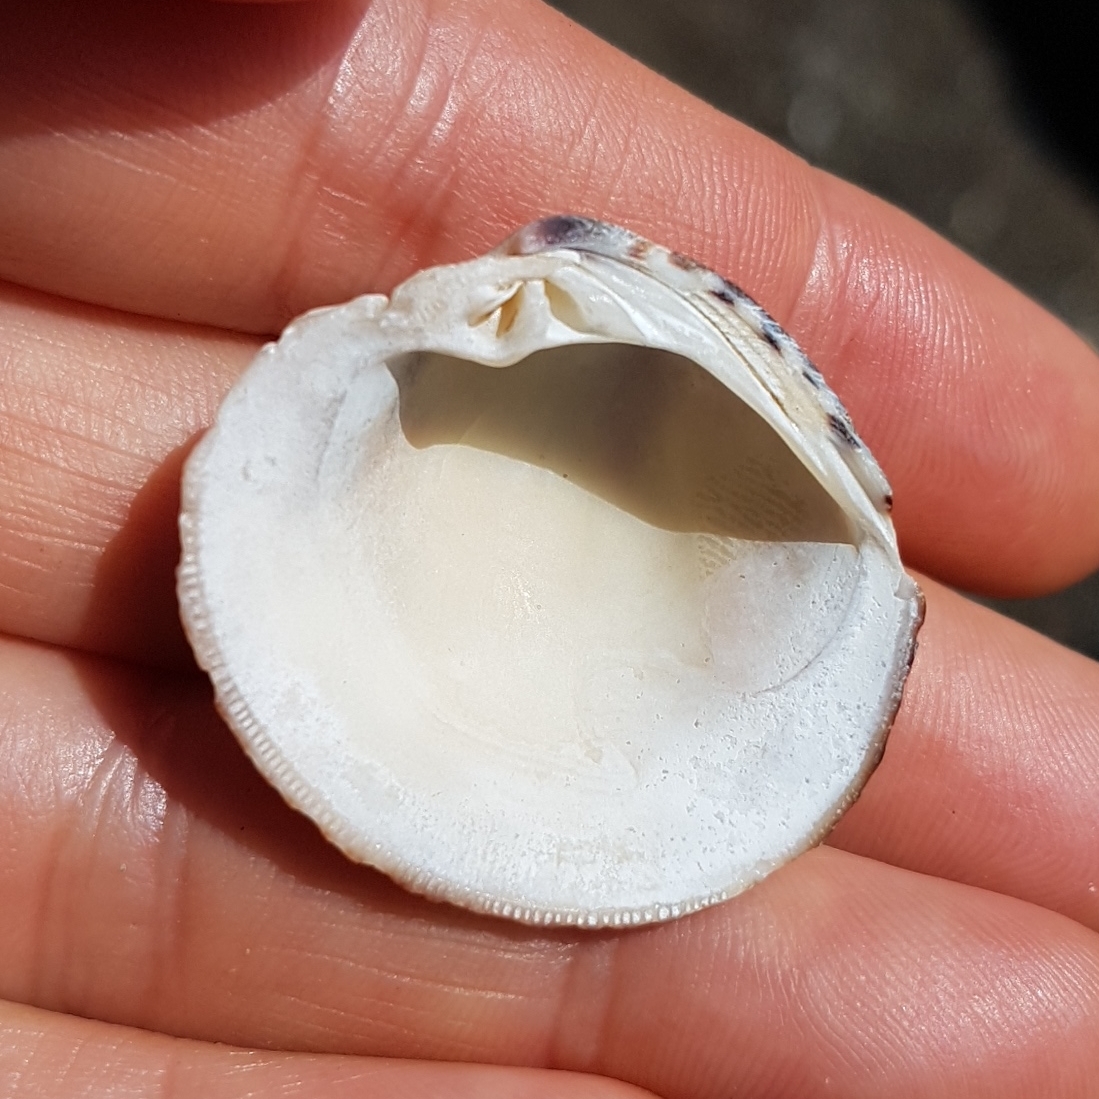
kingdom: Animalia
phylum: Mollusca
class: Bivalvia
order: Venerida
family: Veneridae
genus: Leukoma
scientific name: Leukoma columbiensis
